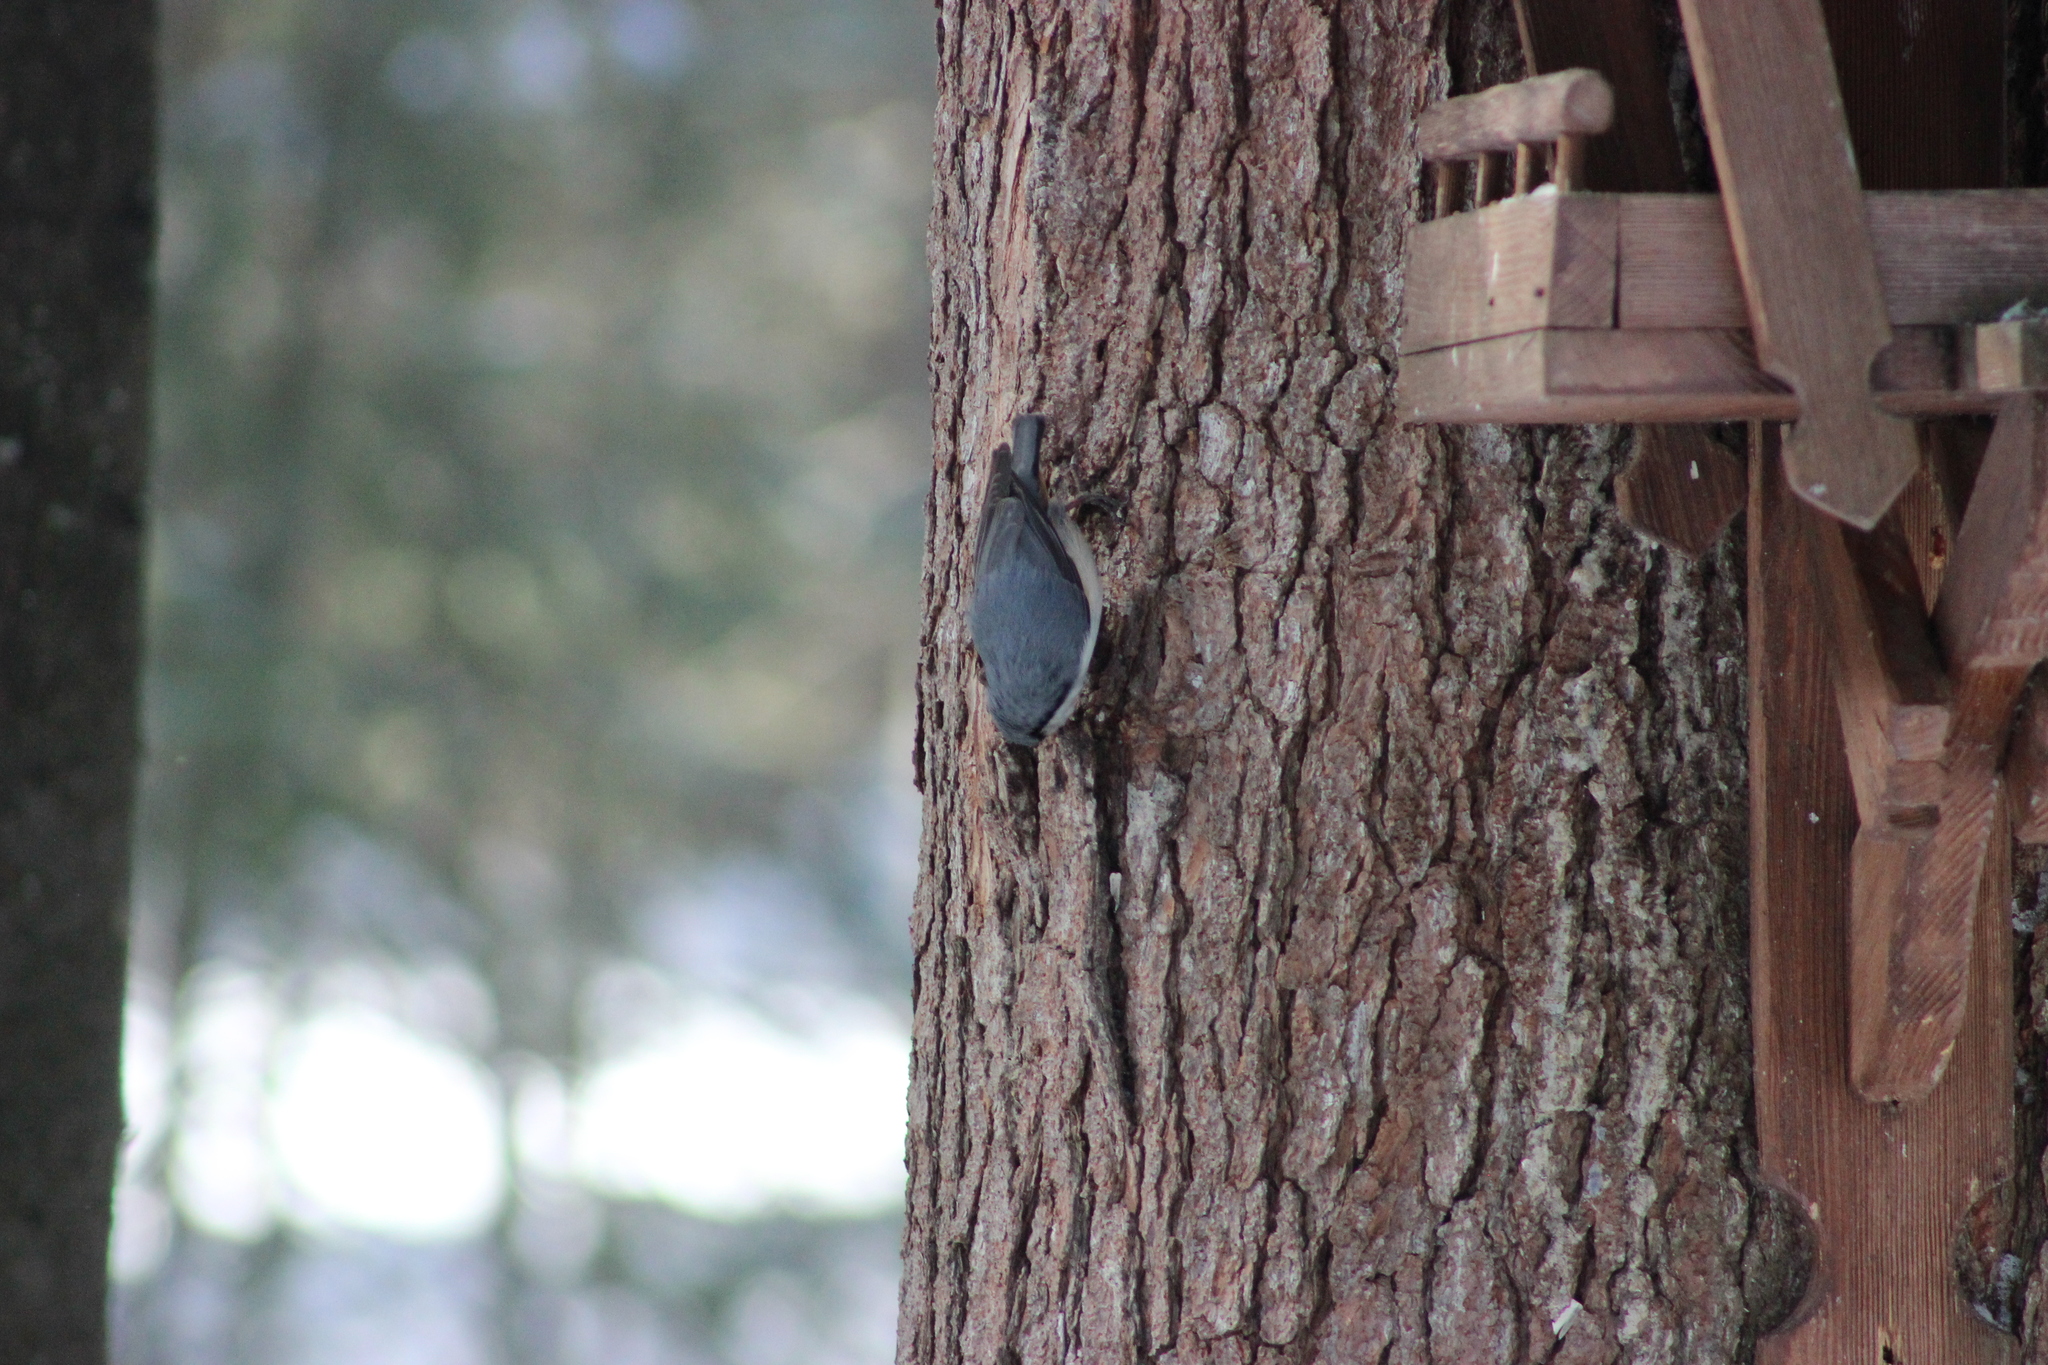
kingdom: Animalia
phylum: Chordata
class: Aves
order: Passeriformes
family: Sittidae
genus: Sitta
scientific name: Sitta europaea
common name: Eurasian nuthatch
